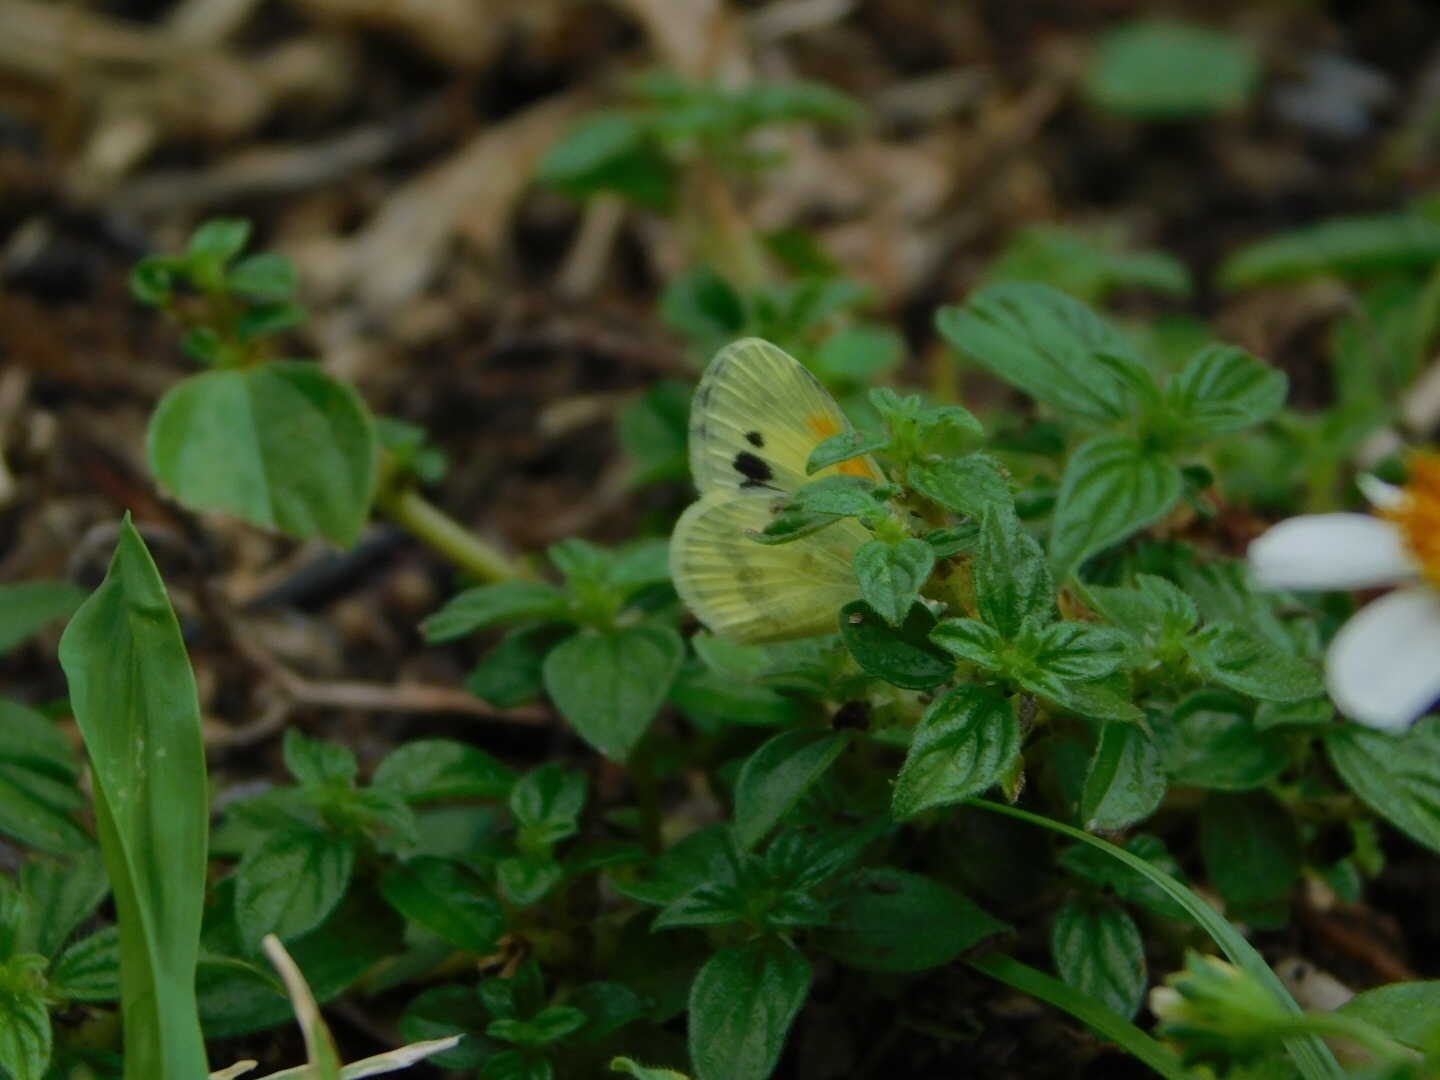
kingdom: Animalia
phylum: Arthropoda
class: Insecta
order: Lepidoptera
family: Pieridae
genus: Nathalis
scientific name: Nathalis iole
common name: Dainty sulphur
